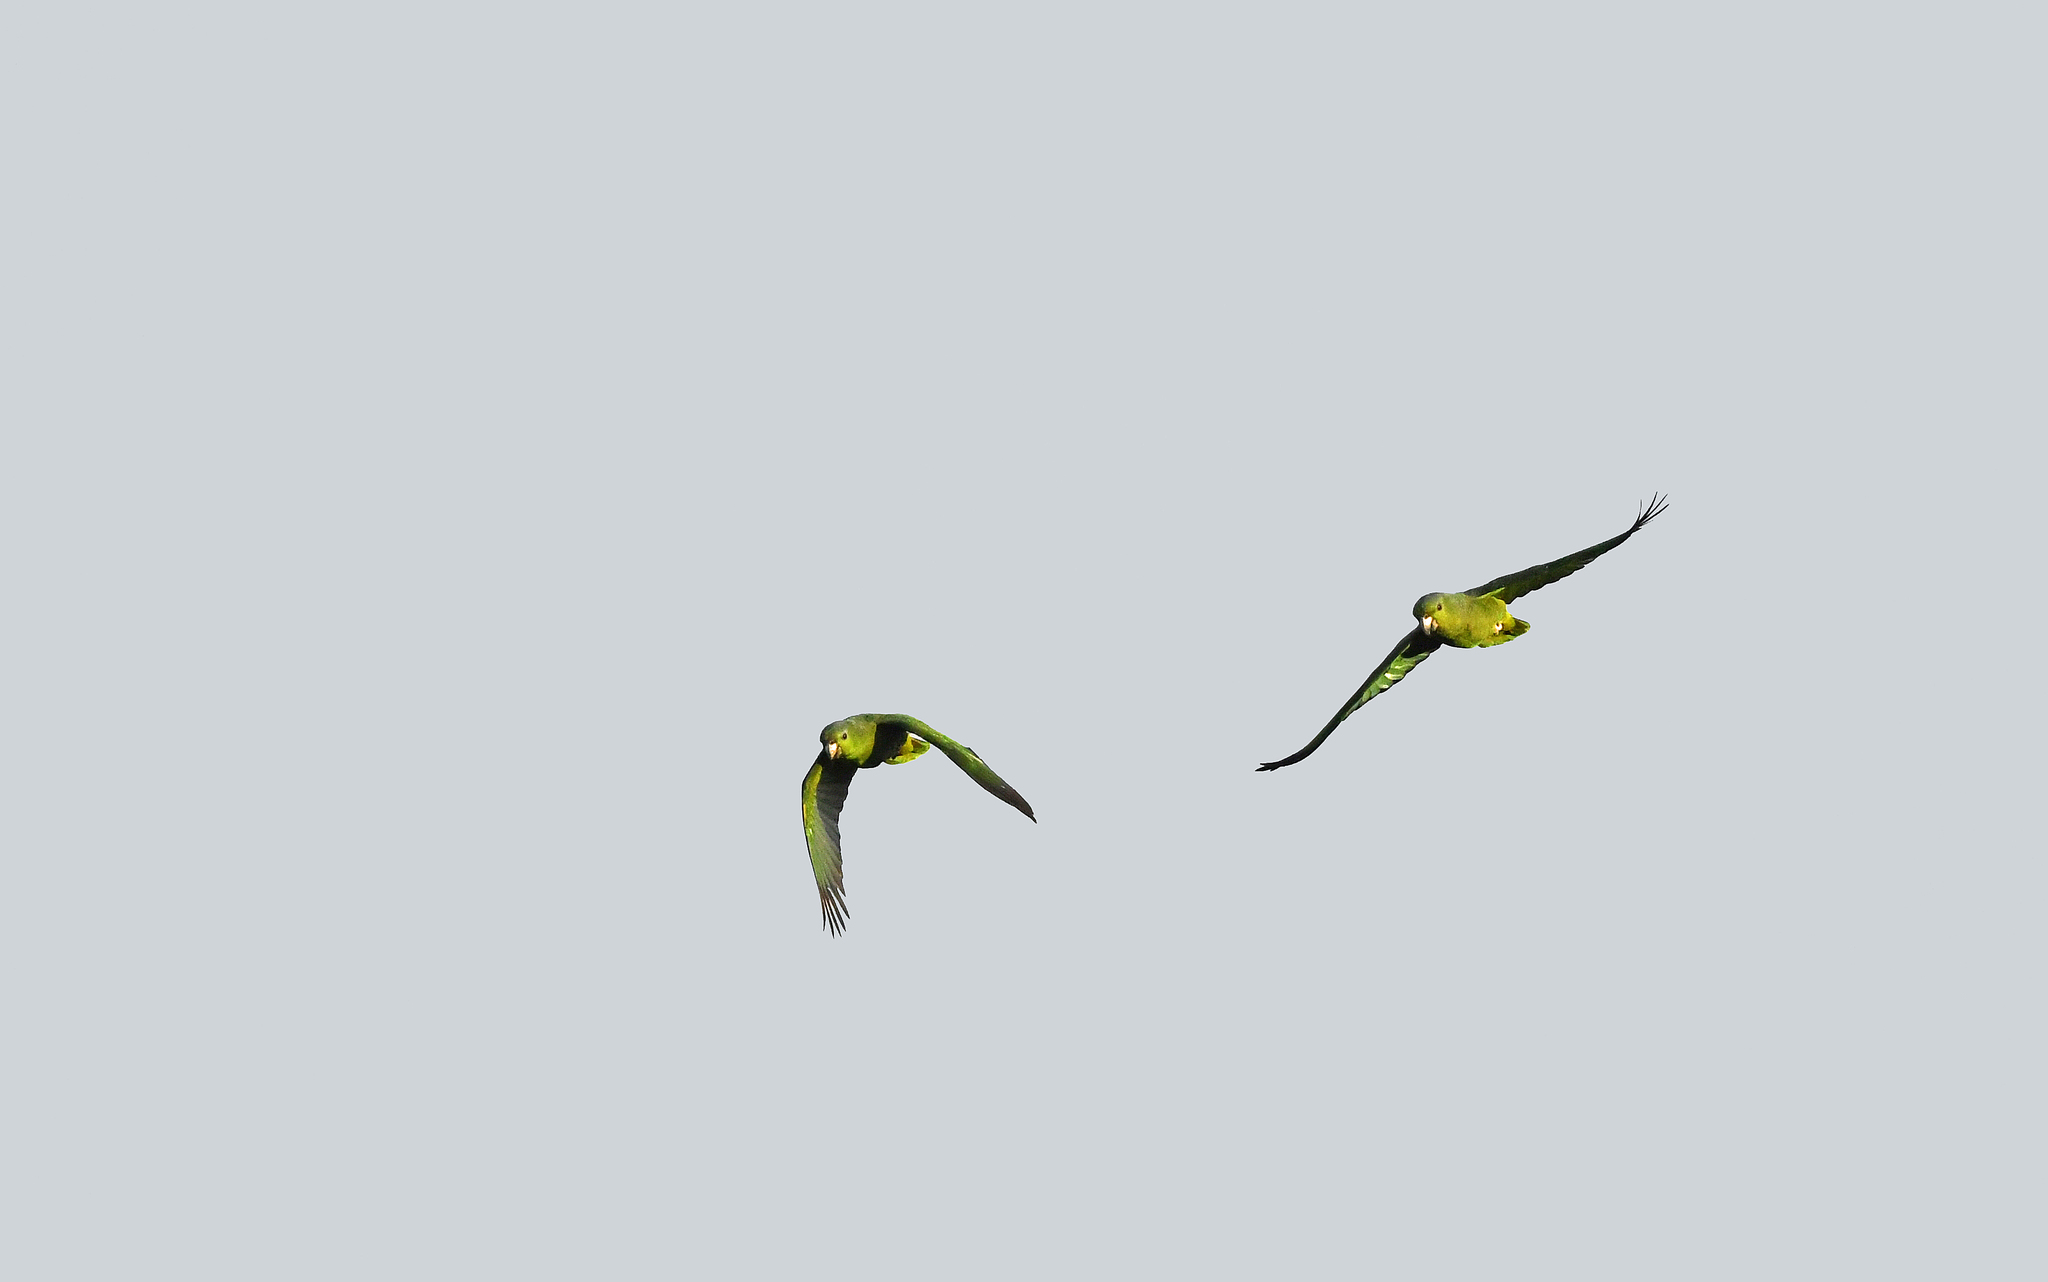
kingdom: Animalia
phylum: Chordata
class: Aves
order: Psittaciformes
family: Psittacidae
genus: Amazona
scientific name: Amazona mercenaria
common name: Scaly-naped amazon
